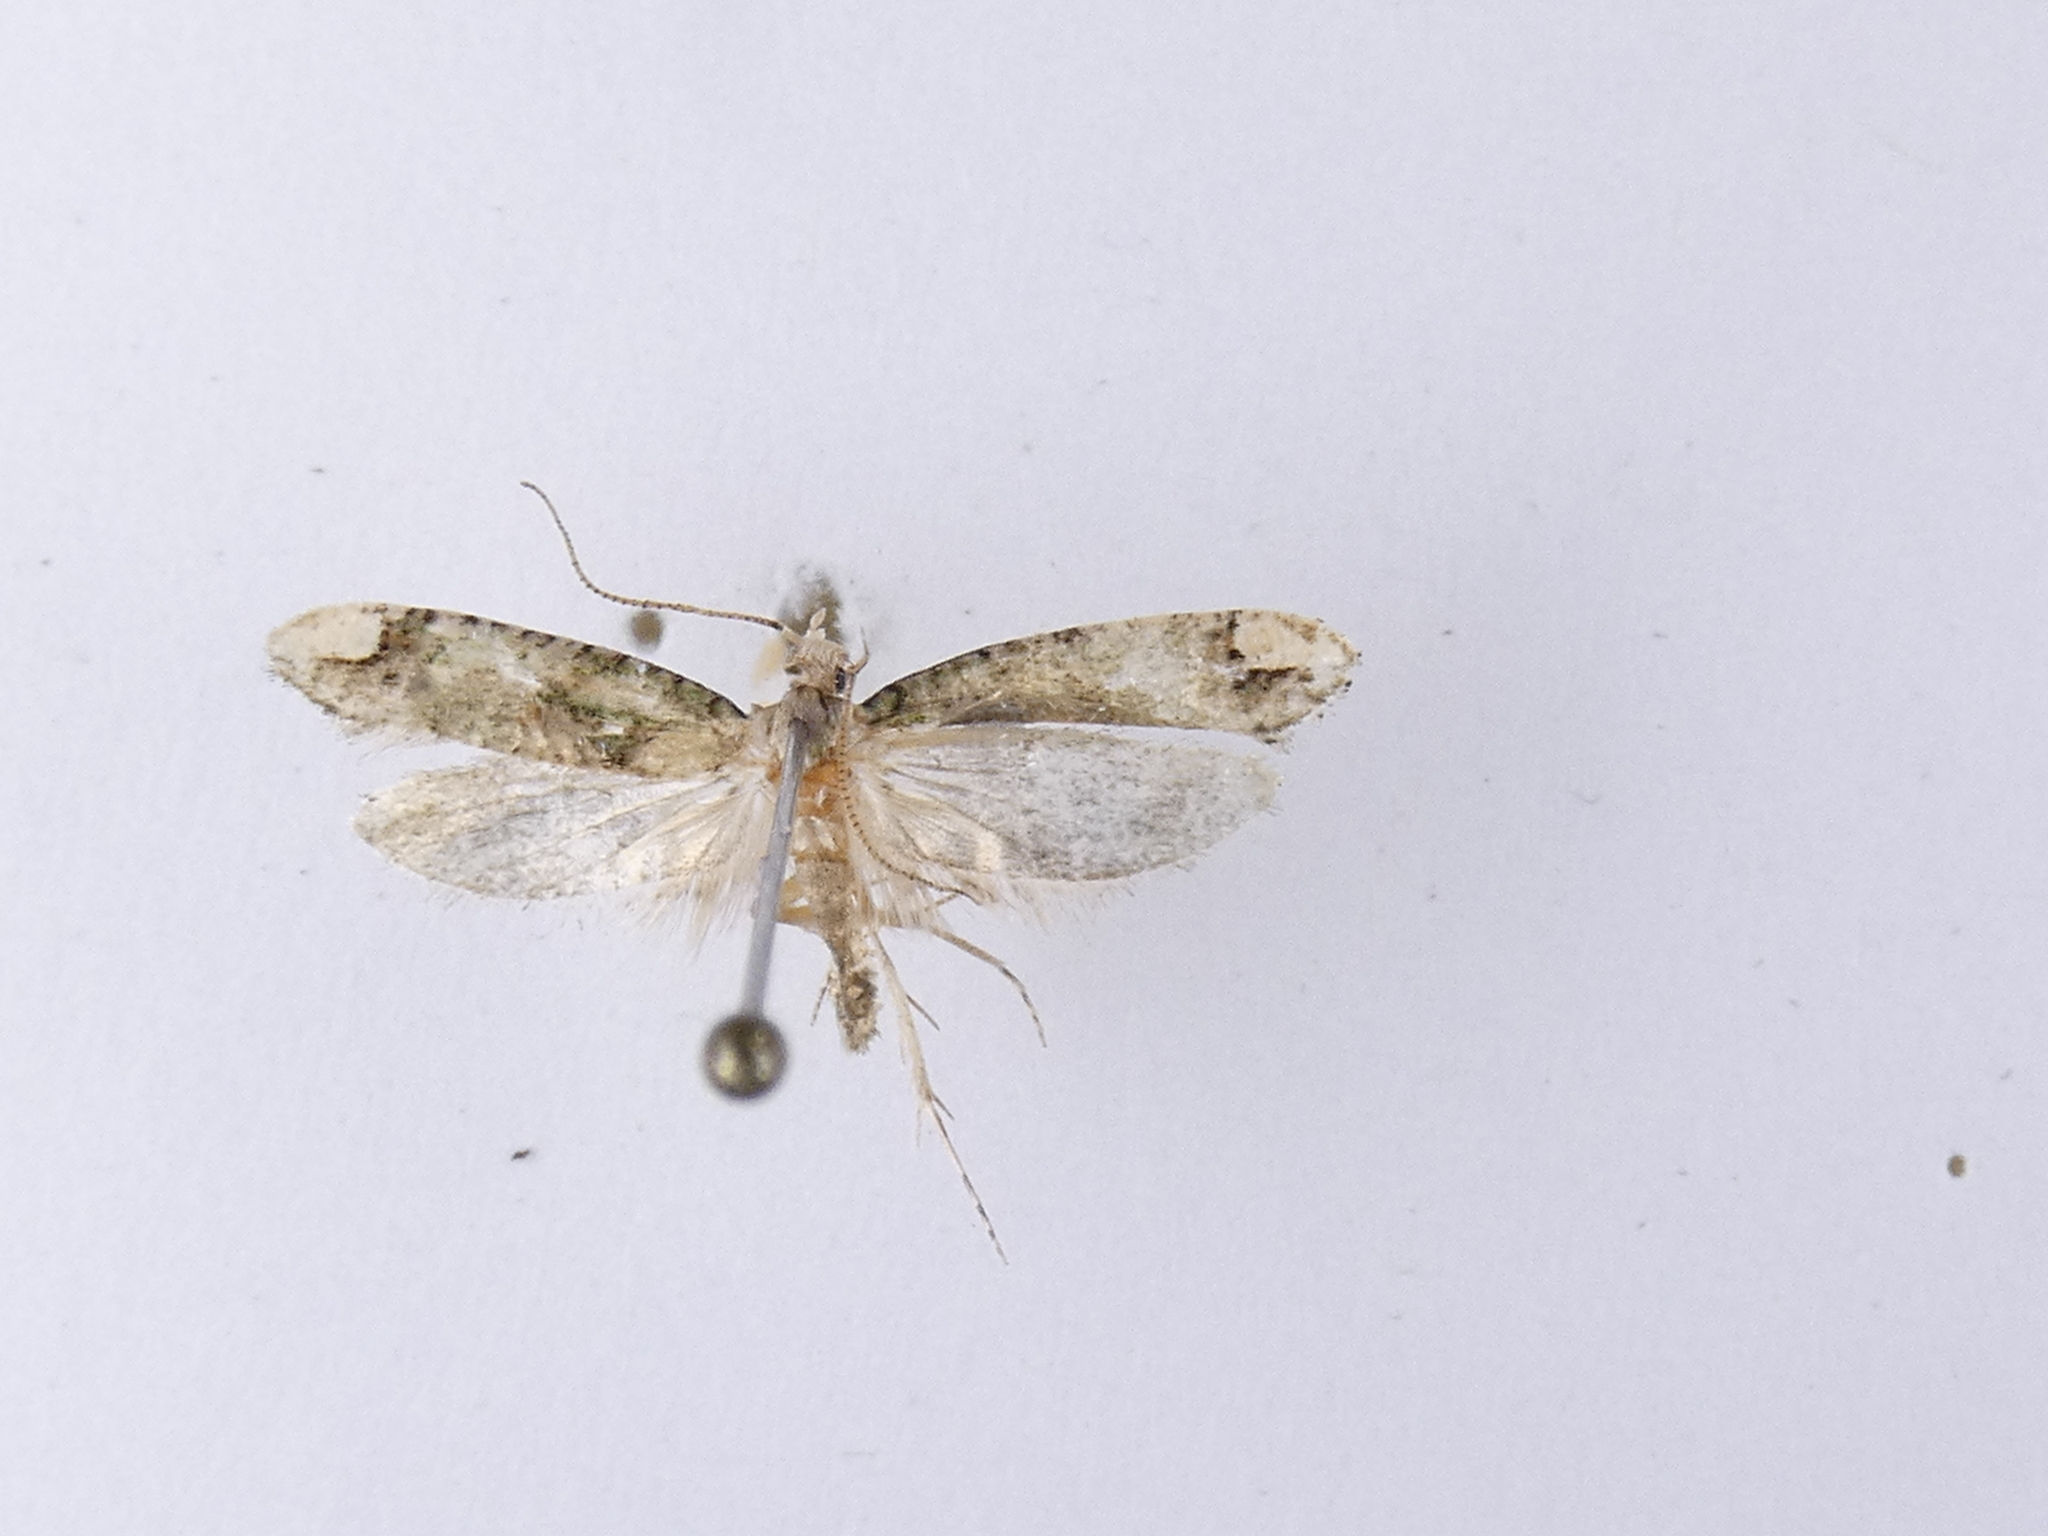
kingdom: Animalia
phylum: Arthropoda
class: Insecta
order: Lepidoptera
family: Tineidae
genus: Lysiphragma
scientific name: Lysiphragma mixochlora
